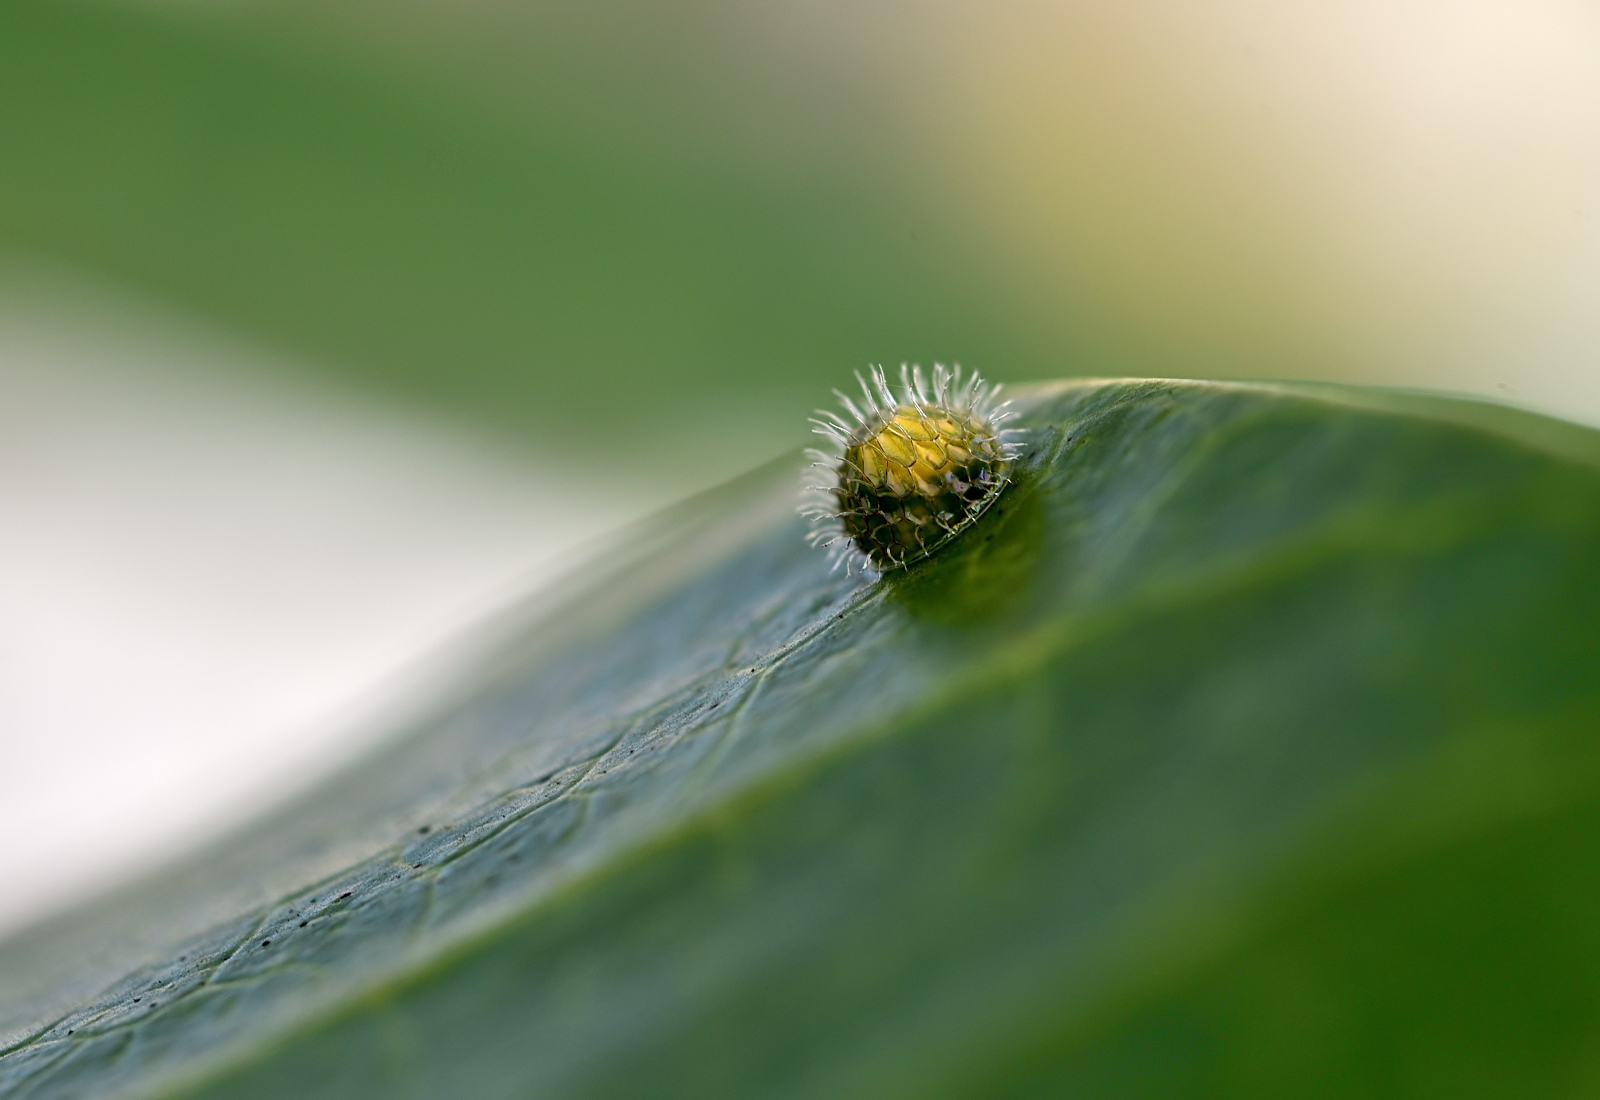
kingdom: Animalia
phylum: Arthropoda
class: Insecta
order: Lepidoptera
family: Nymphalidae
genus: Euthalia
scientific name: Euthalia aconthea
